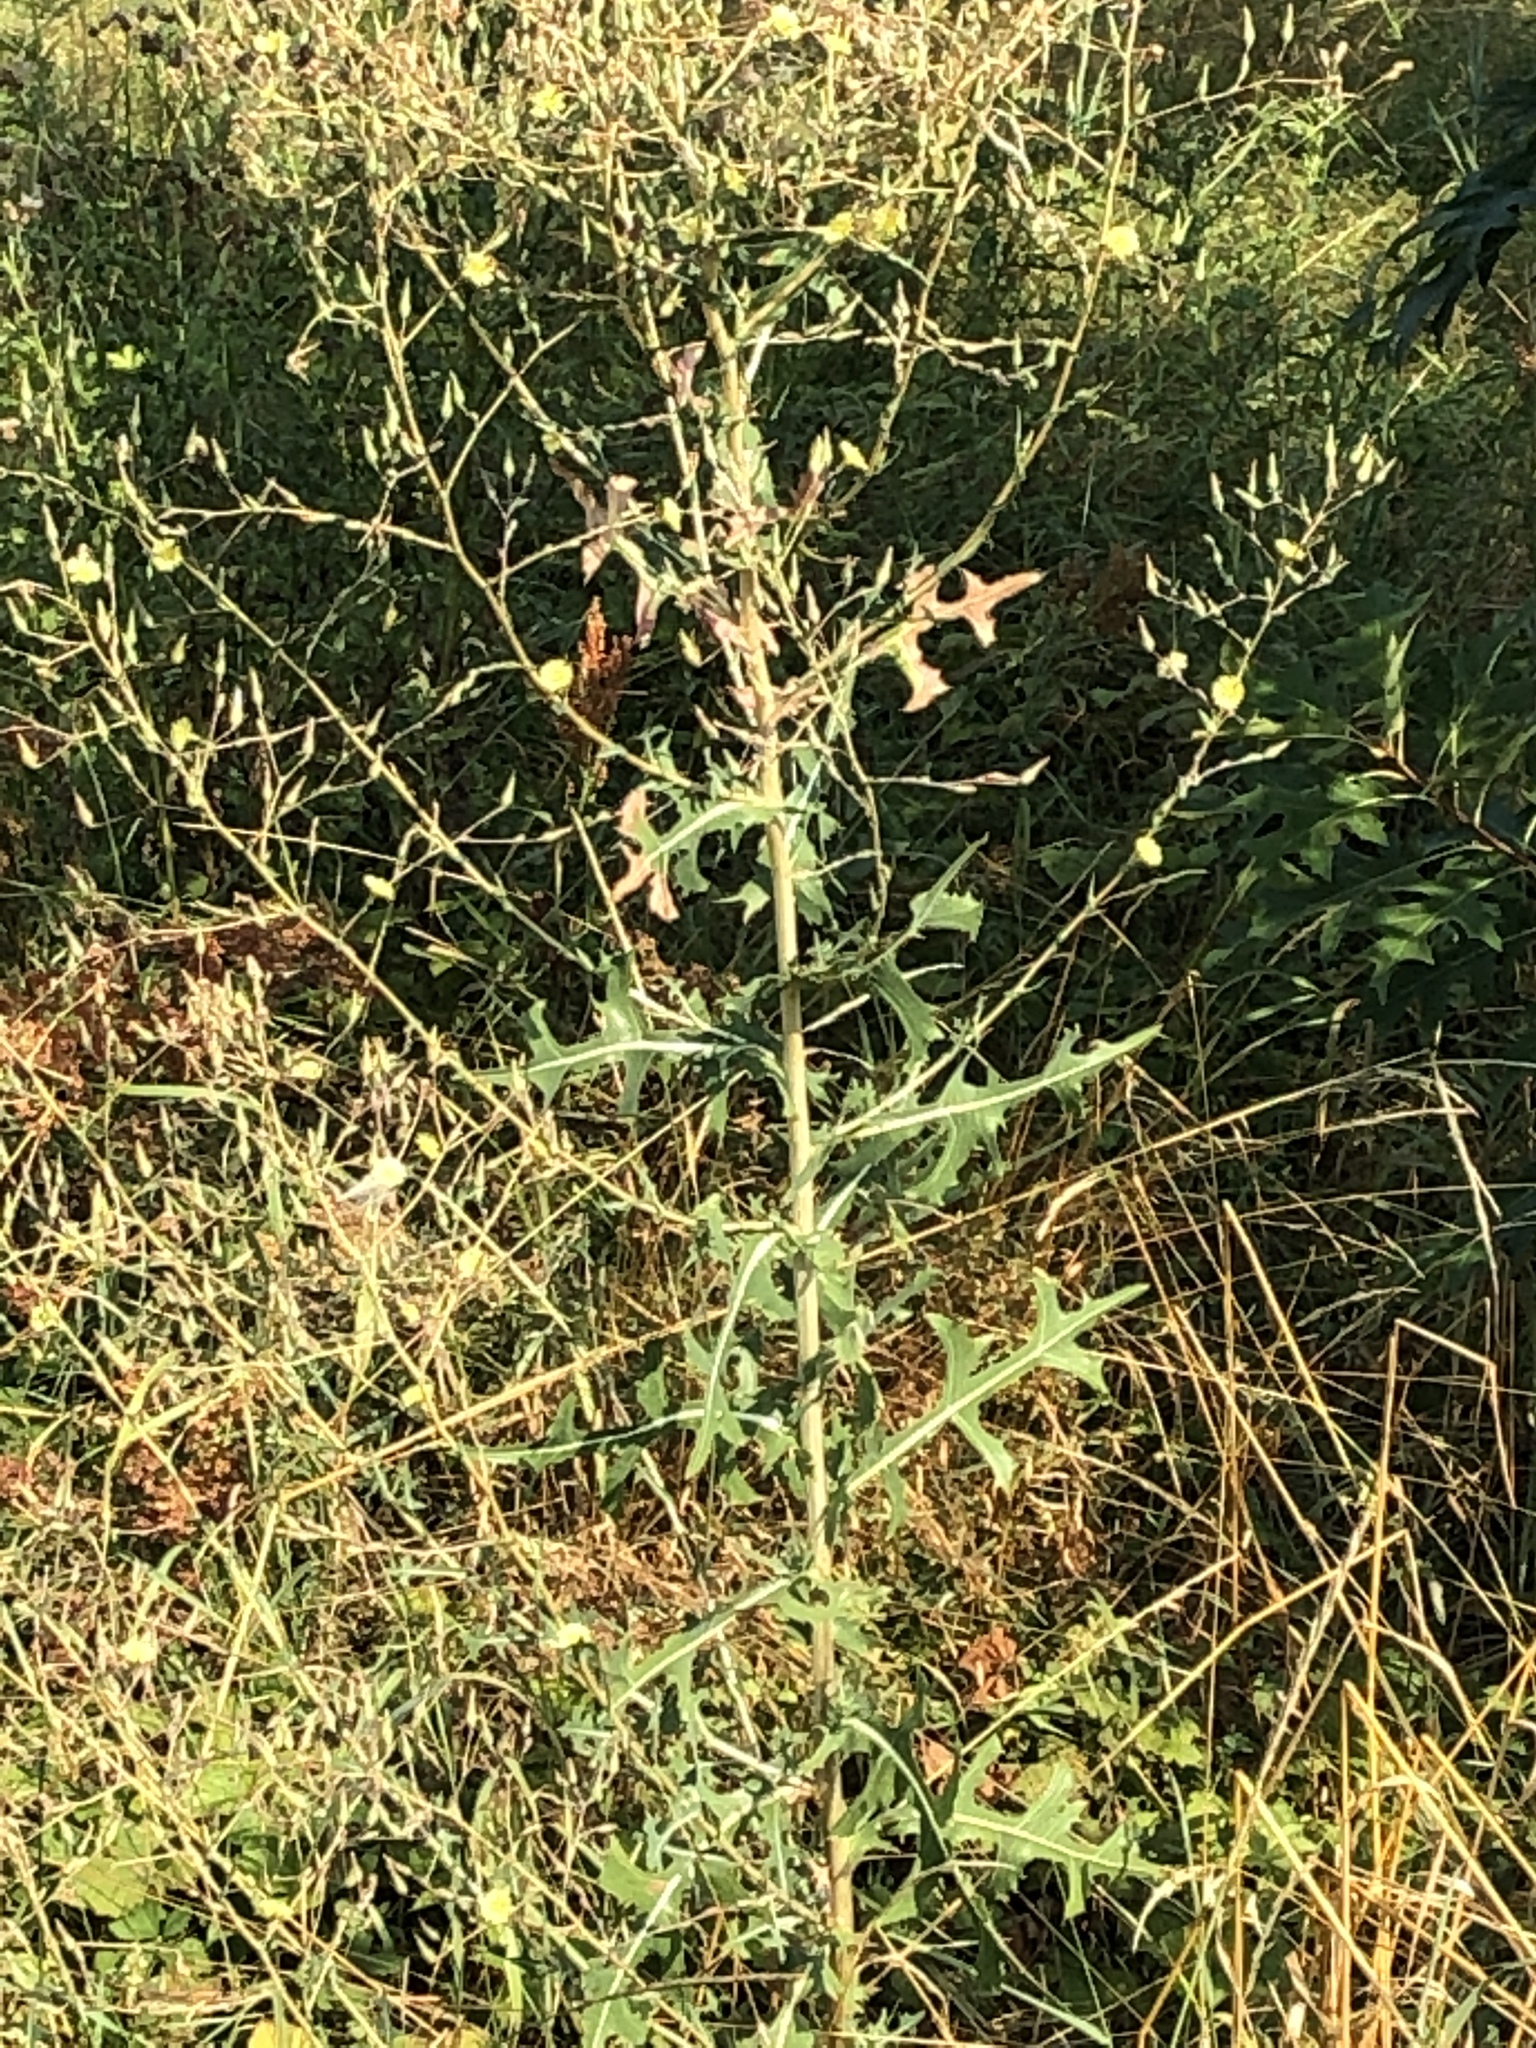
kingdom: Plantae
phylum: Tracheophyta
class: Magnoliopsida
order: Asterales
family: Asteraceae
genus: Lactuca
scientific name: Lactuca serriola
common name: Prickly lettuce
